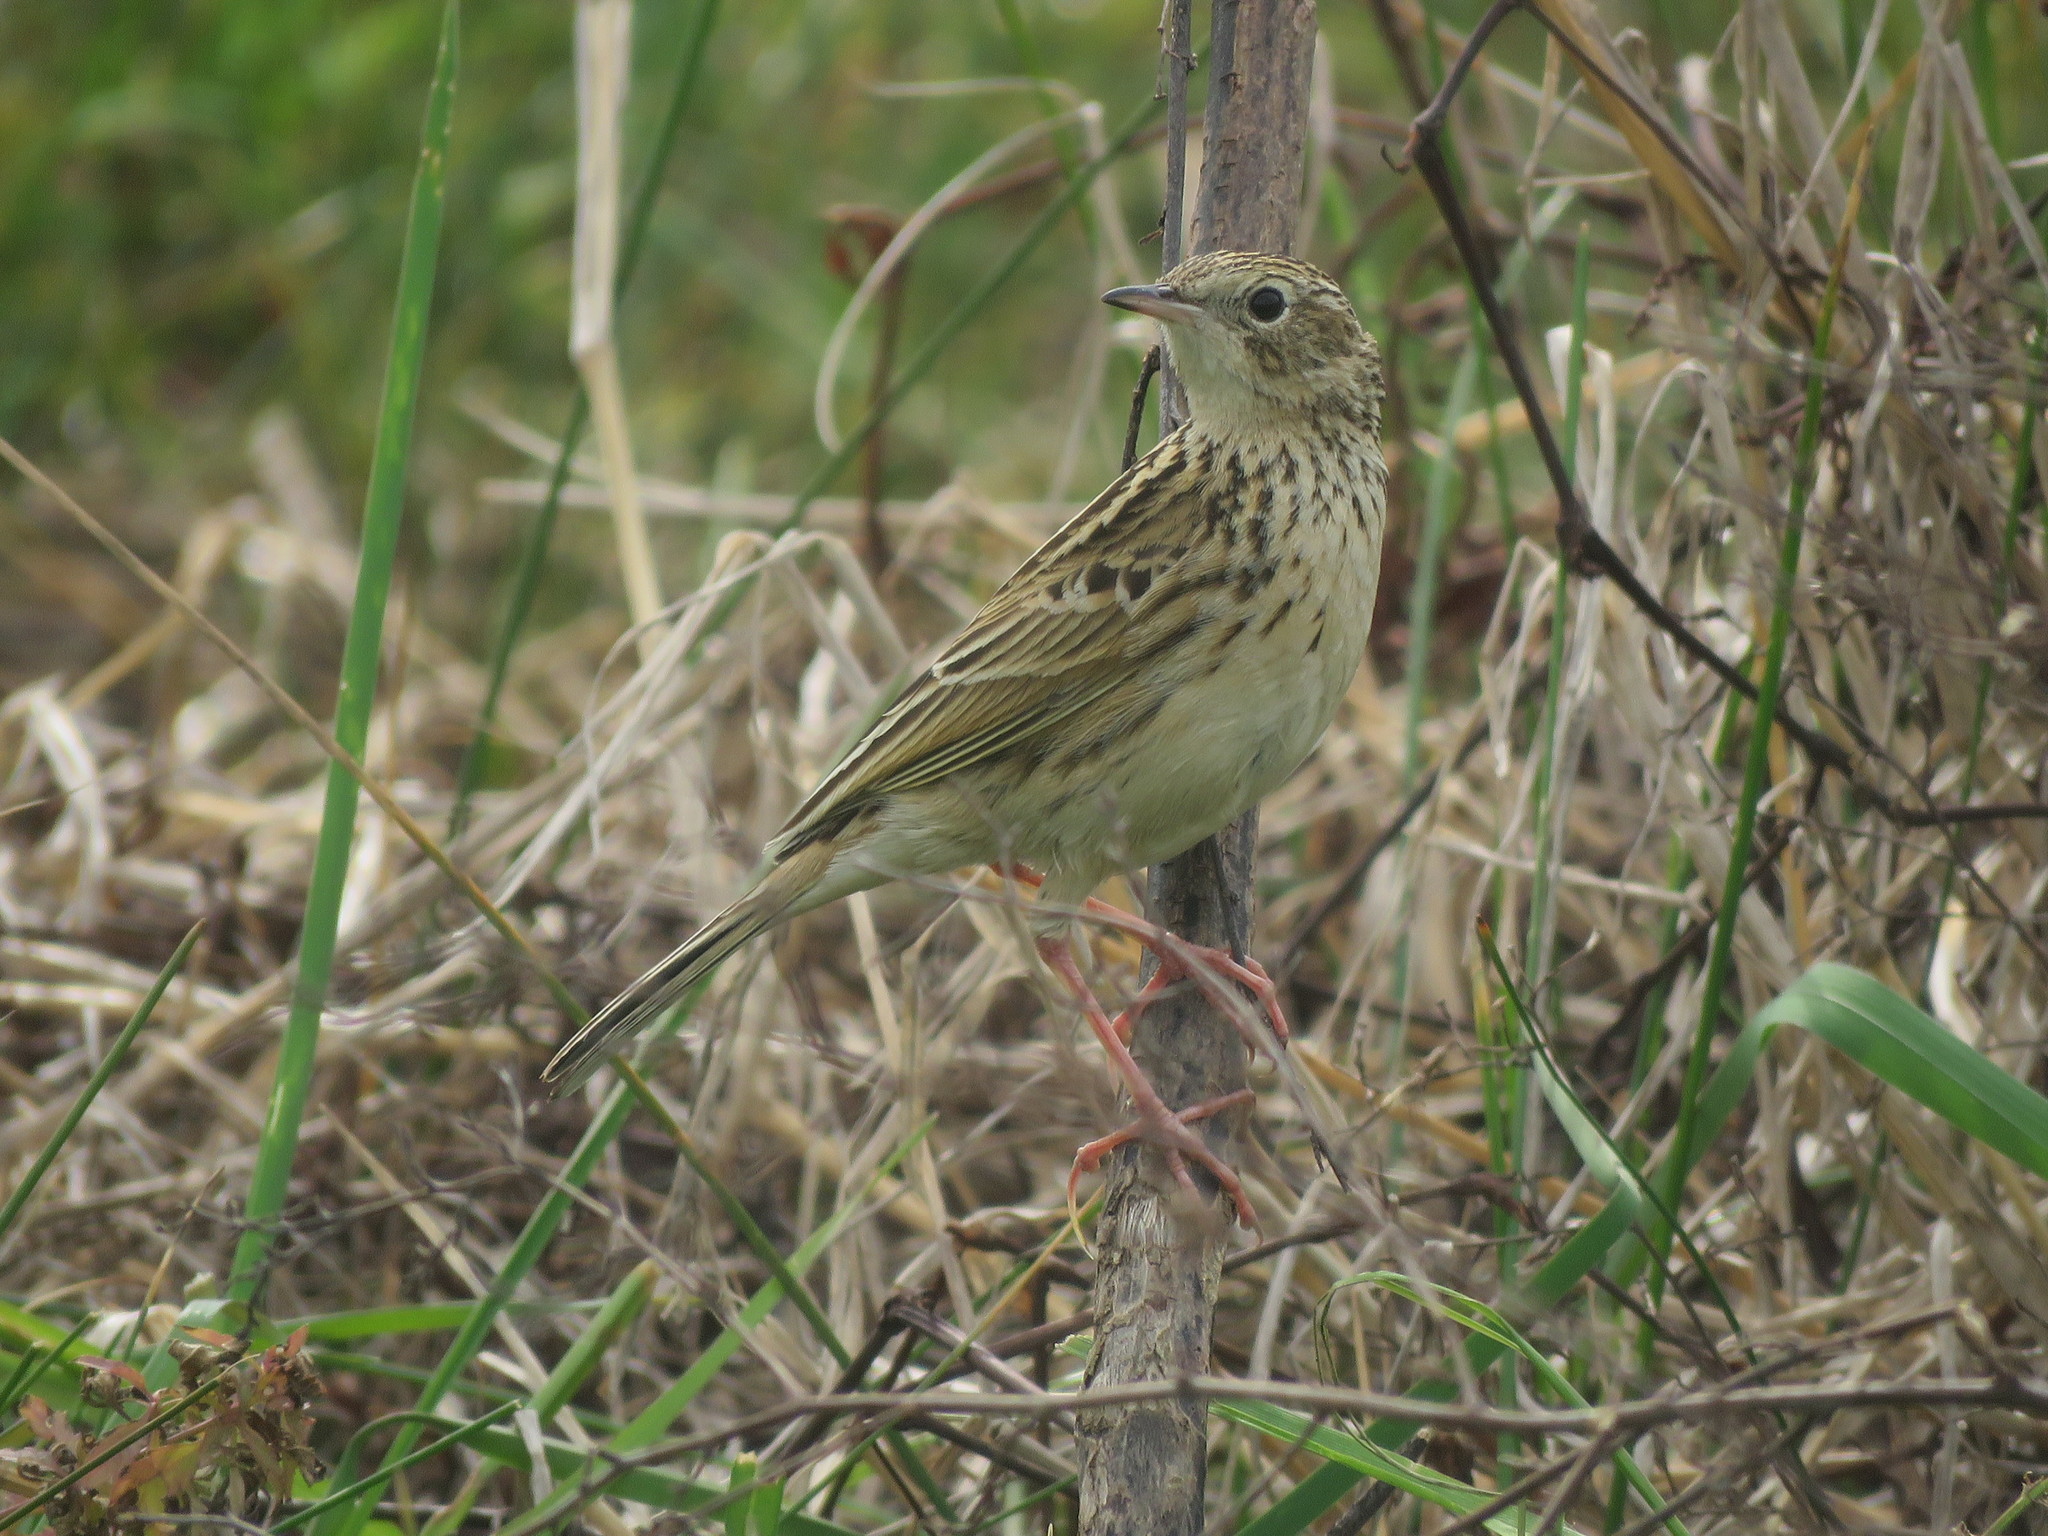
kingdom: Animalia
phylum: Chordata
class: Aves
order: Passeriformes
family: Motacillidae
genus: Anthus
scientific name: Anthus hellmayri
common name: Hellmayr's pipit
